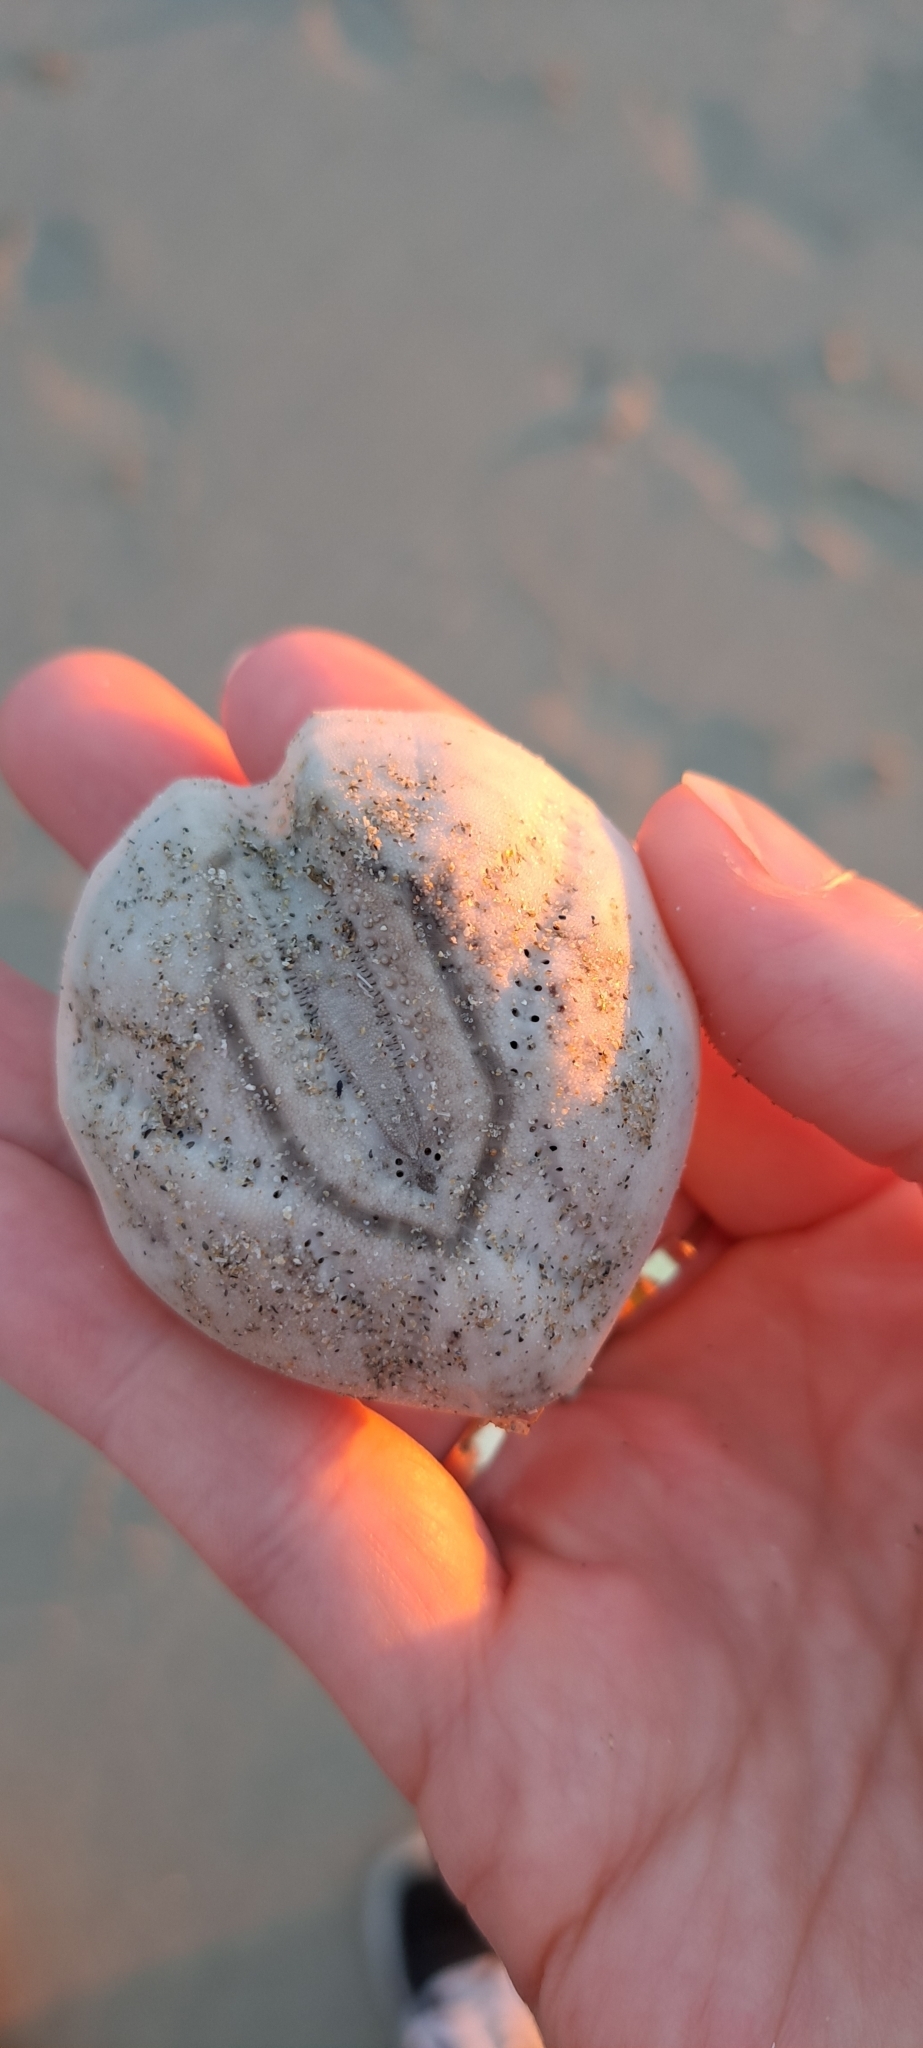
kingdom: Animalia
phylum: Echinodermata
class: Echinoidea
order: Spatangoida
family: Loveniidae
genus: Echinocardium
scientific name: Echinocardium cordatum
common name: Heart-urchin
